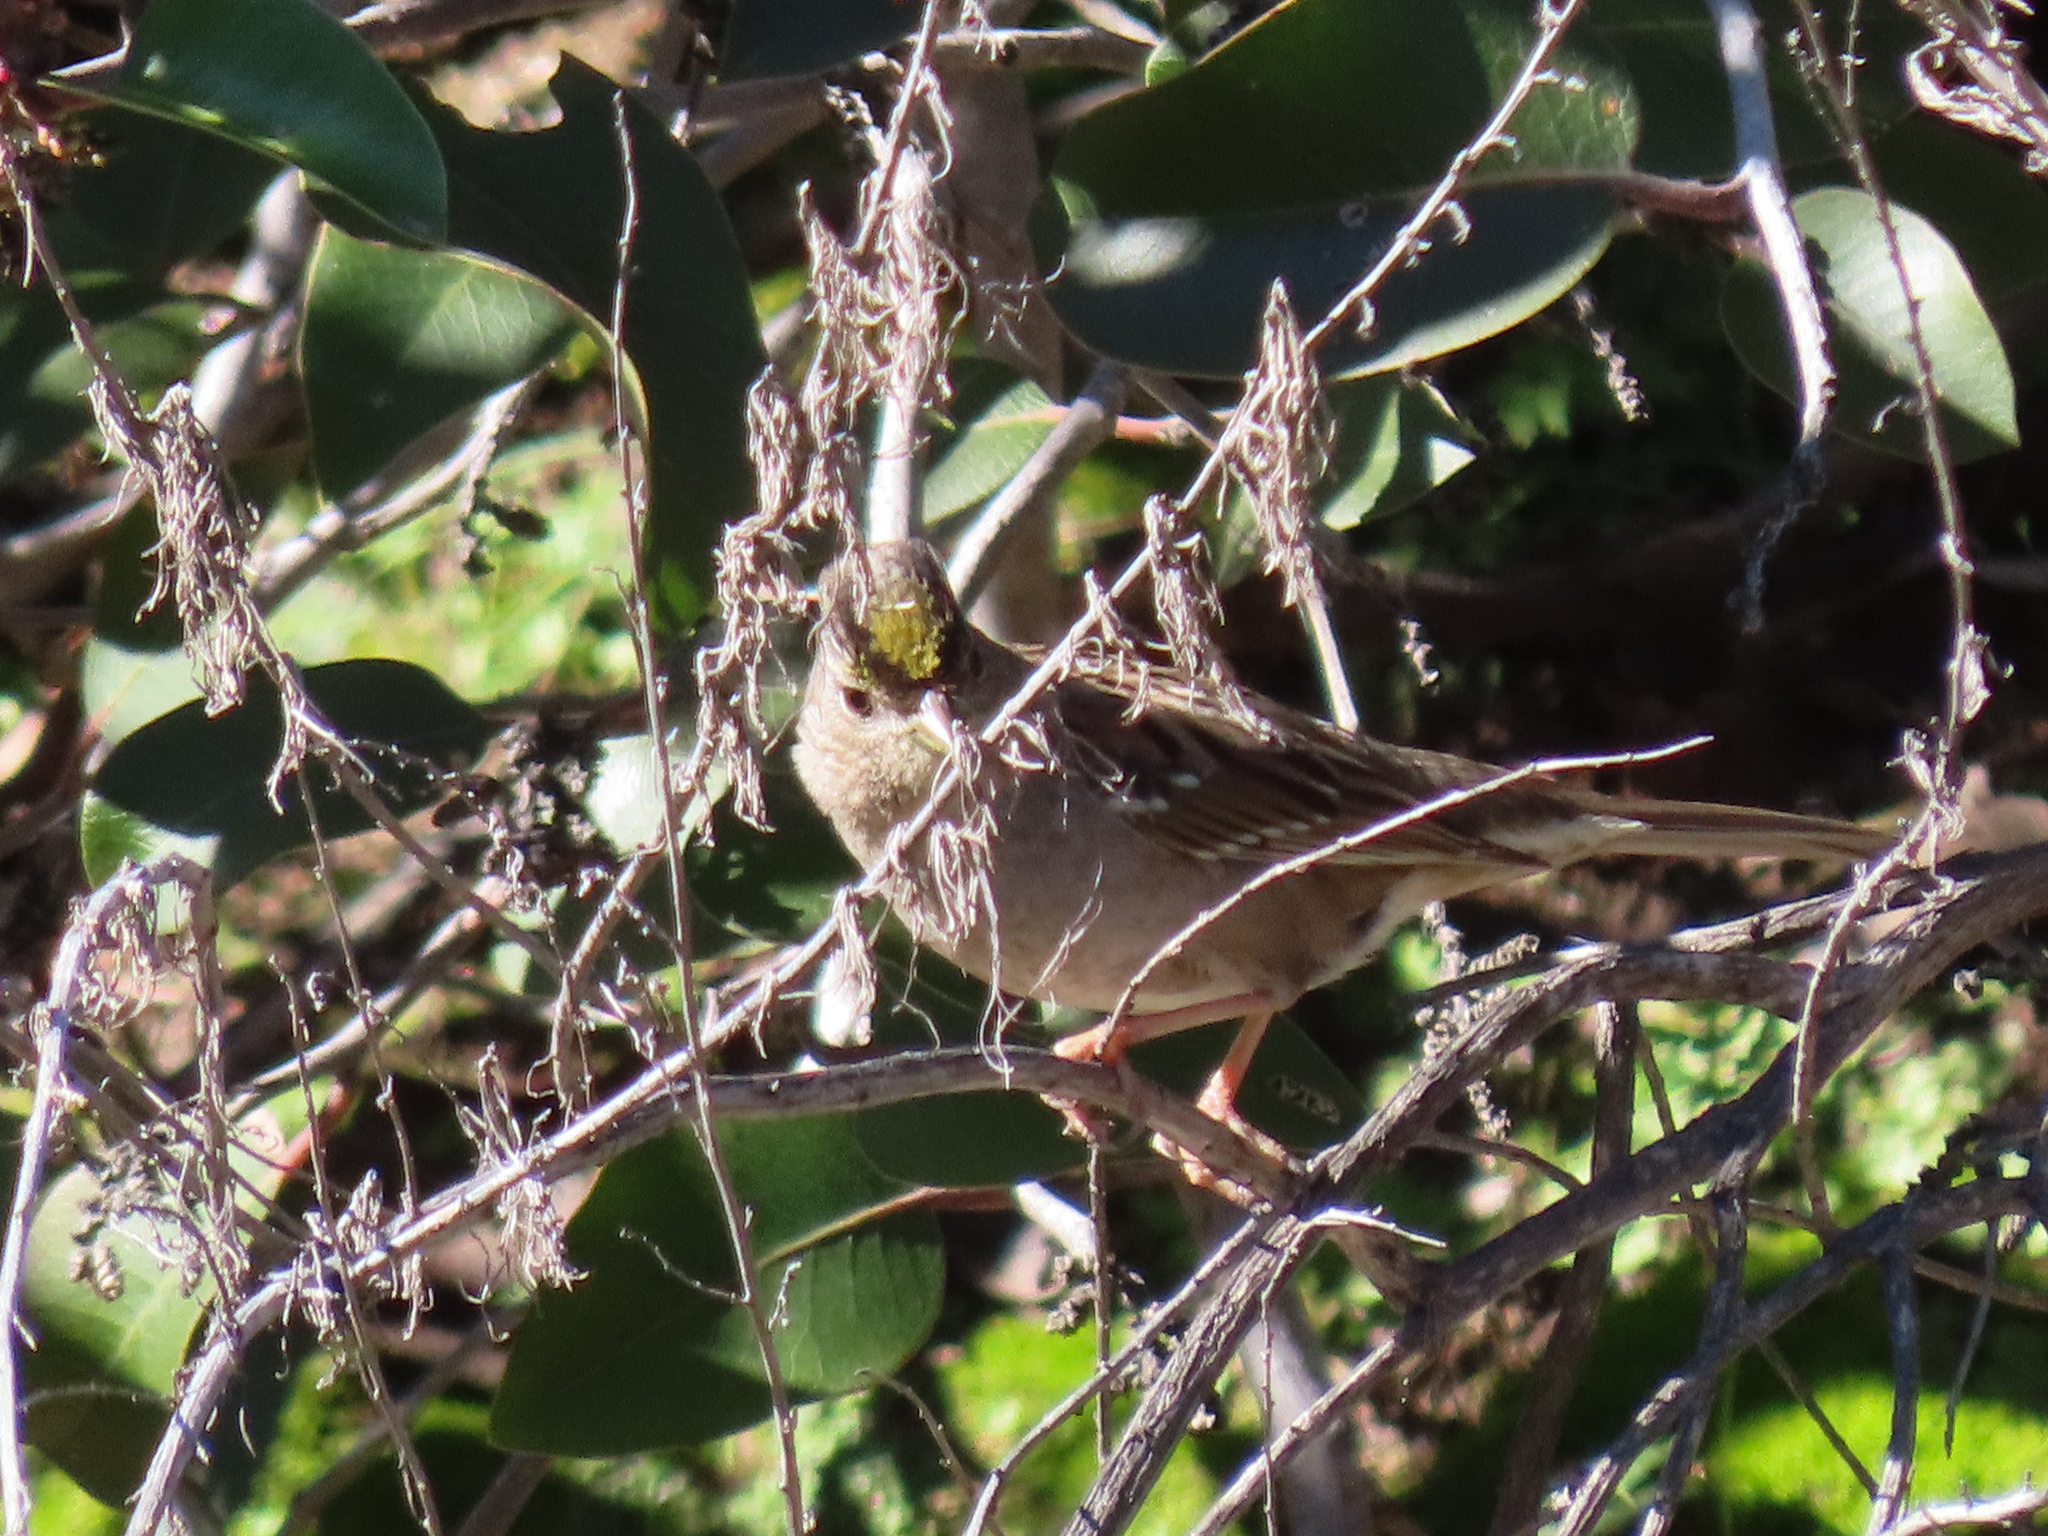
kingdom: Animalia
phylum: Chordata
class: Aves
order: Passeriformes
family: Passerellidae
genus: Zonotrichia
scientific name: Zonotrichia atricapilla
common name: Golden-crowned sparrow
